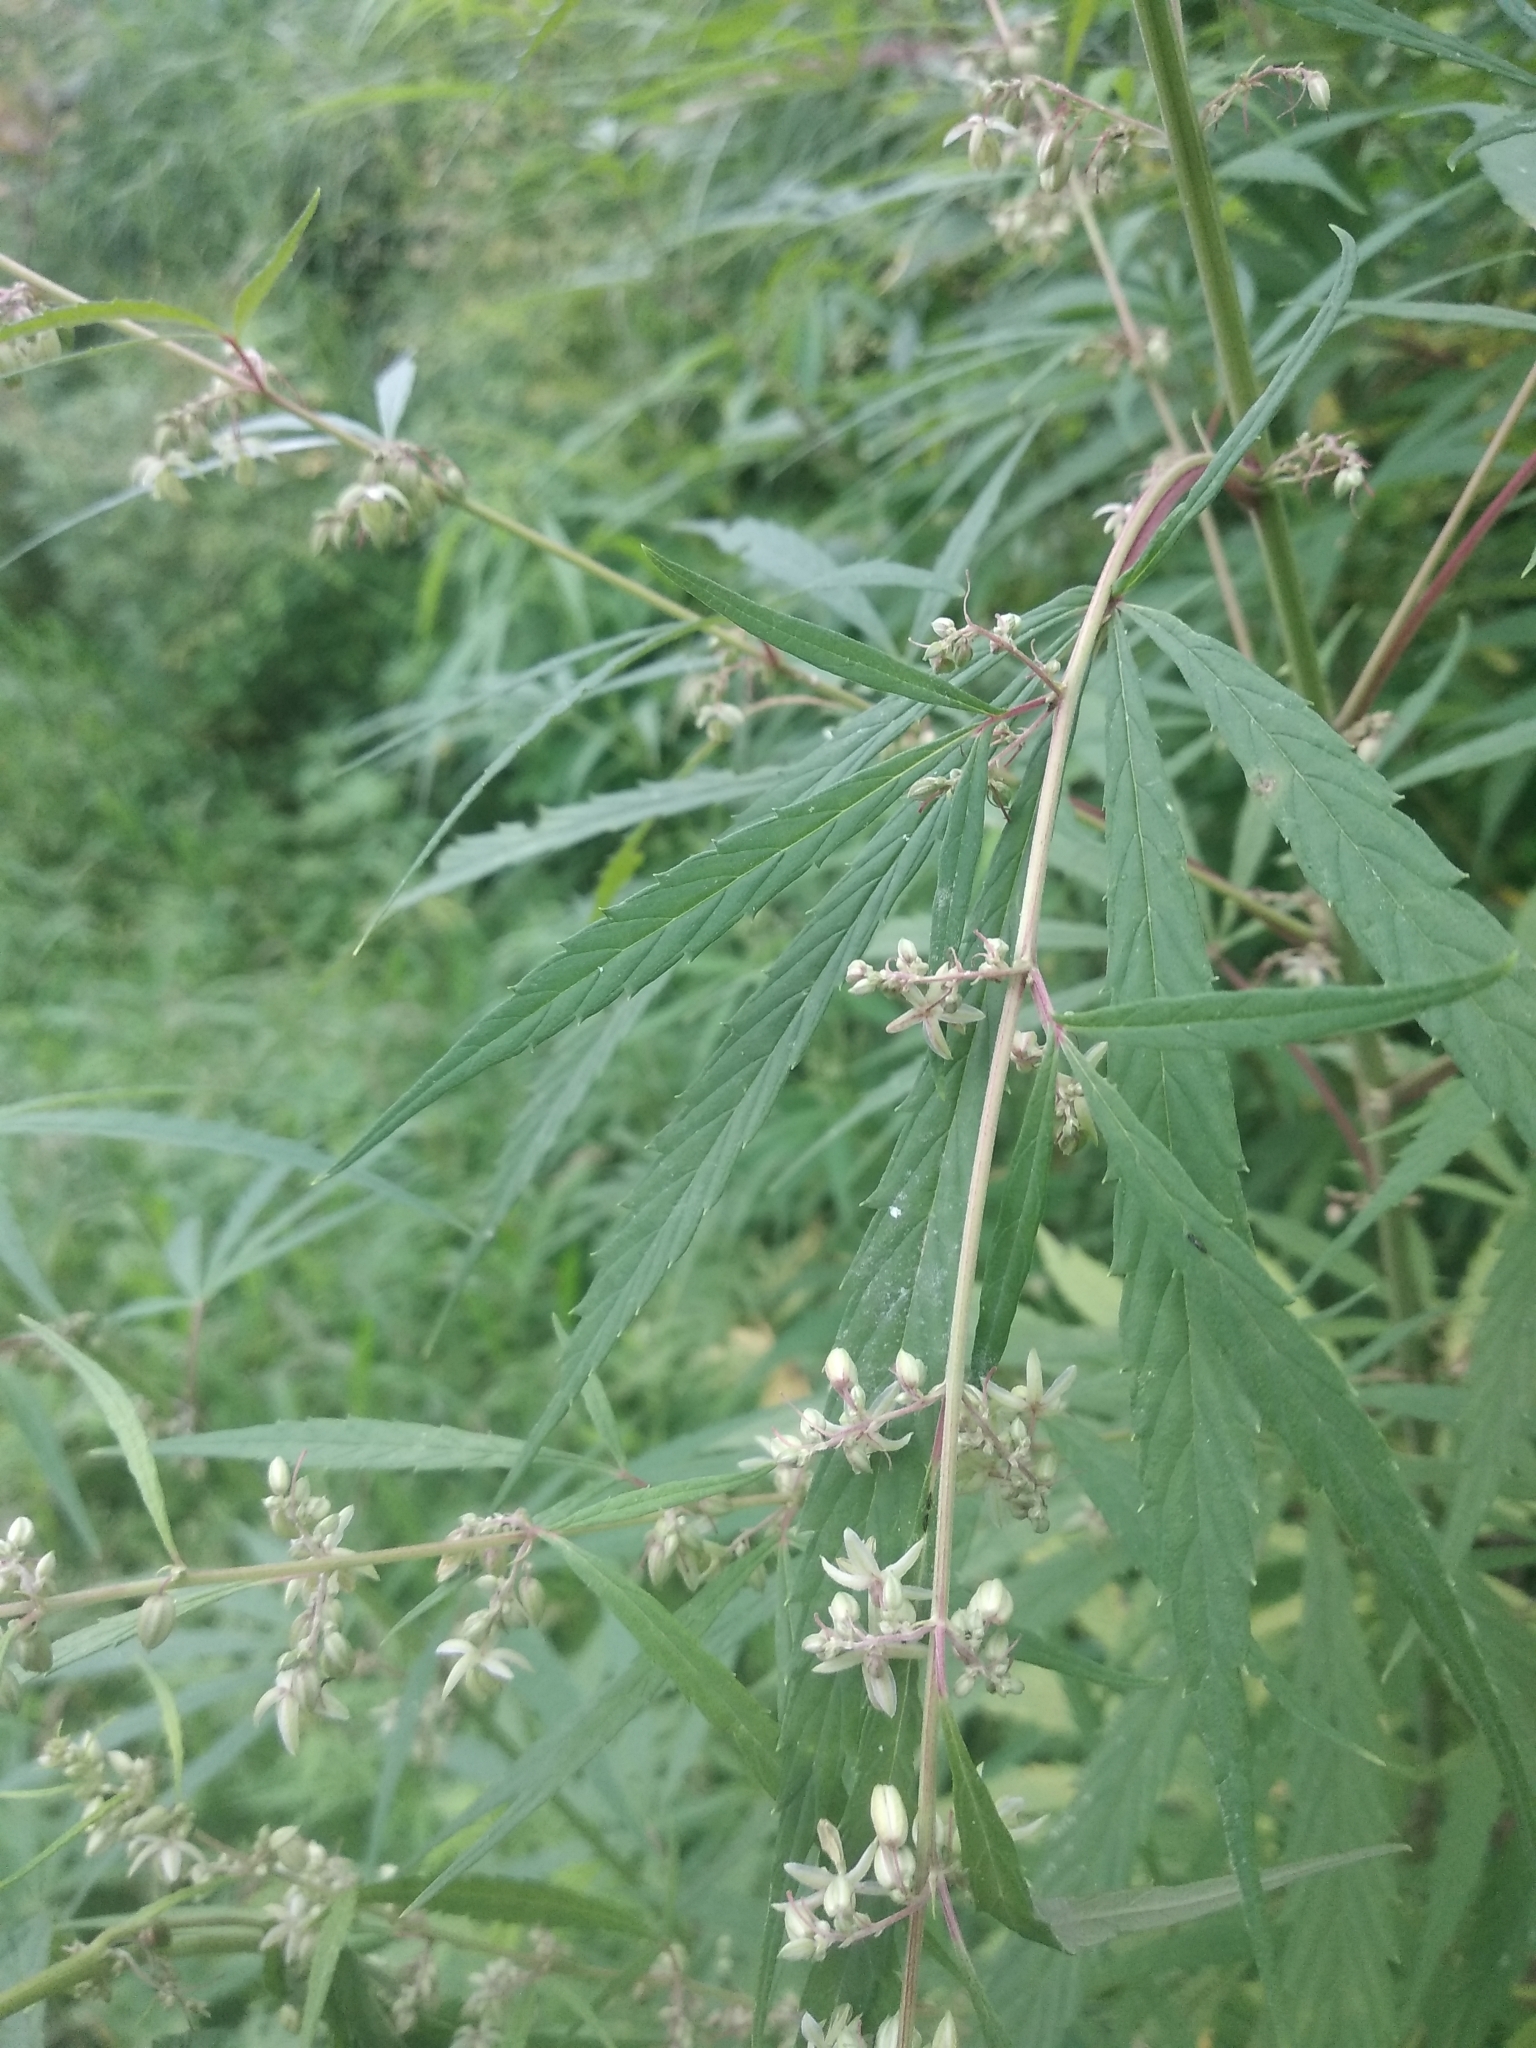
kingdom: Plantae
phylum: Tracheophyta
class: Magnoliopsida
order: Rosales
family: Cannabaceae
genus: Cannabis
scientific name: Cannabis sativa
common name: Hemp
